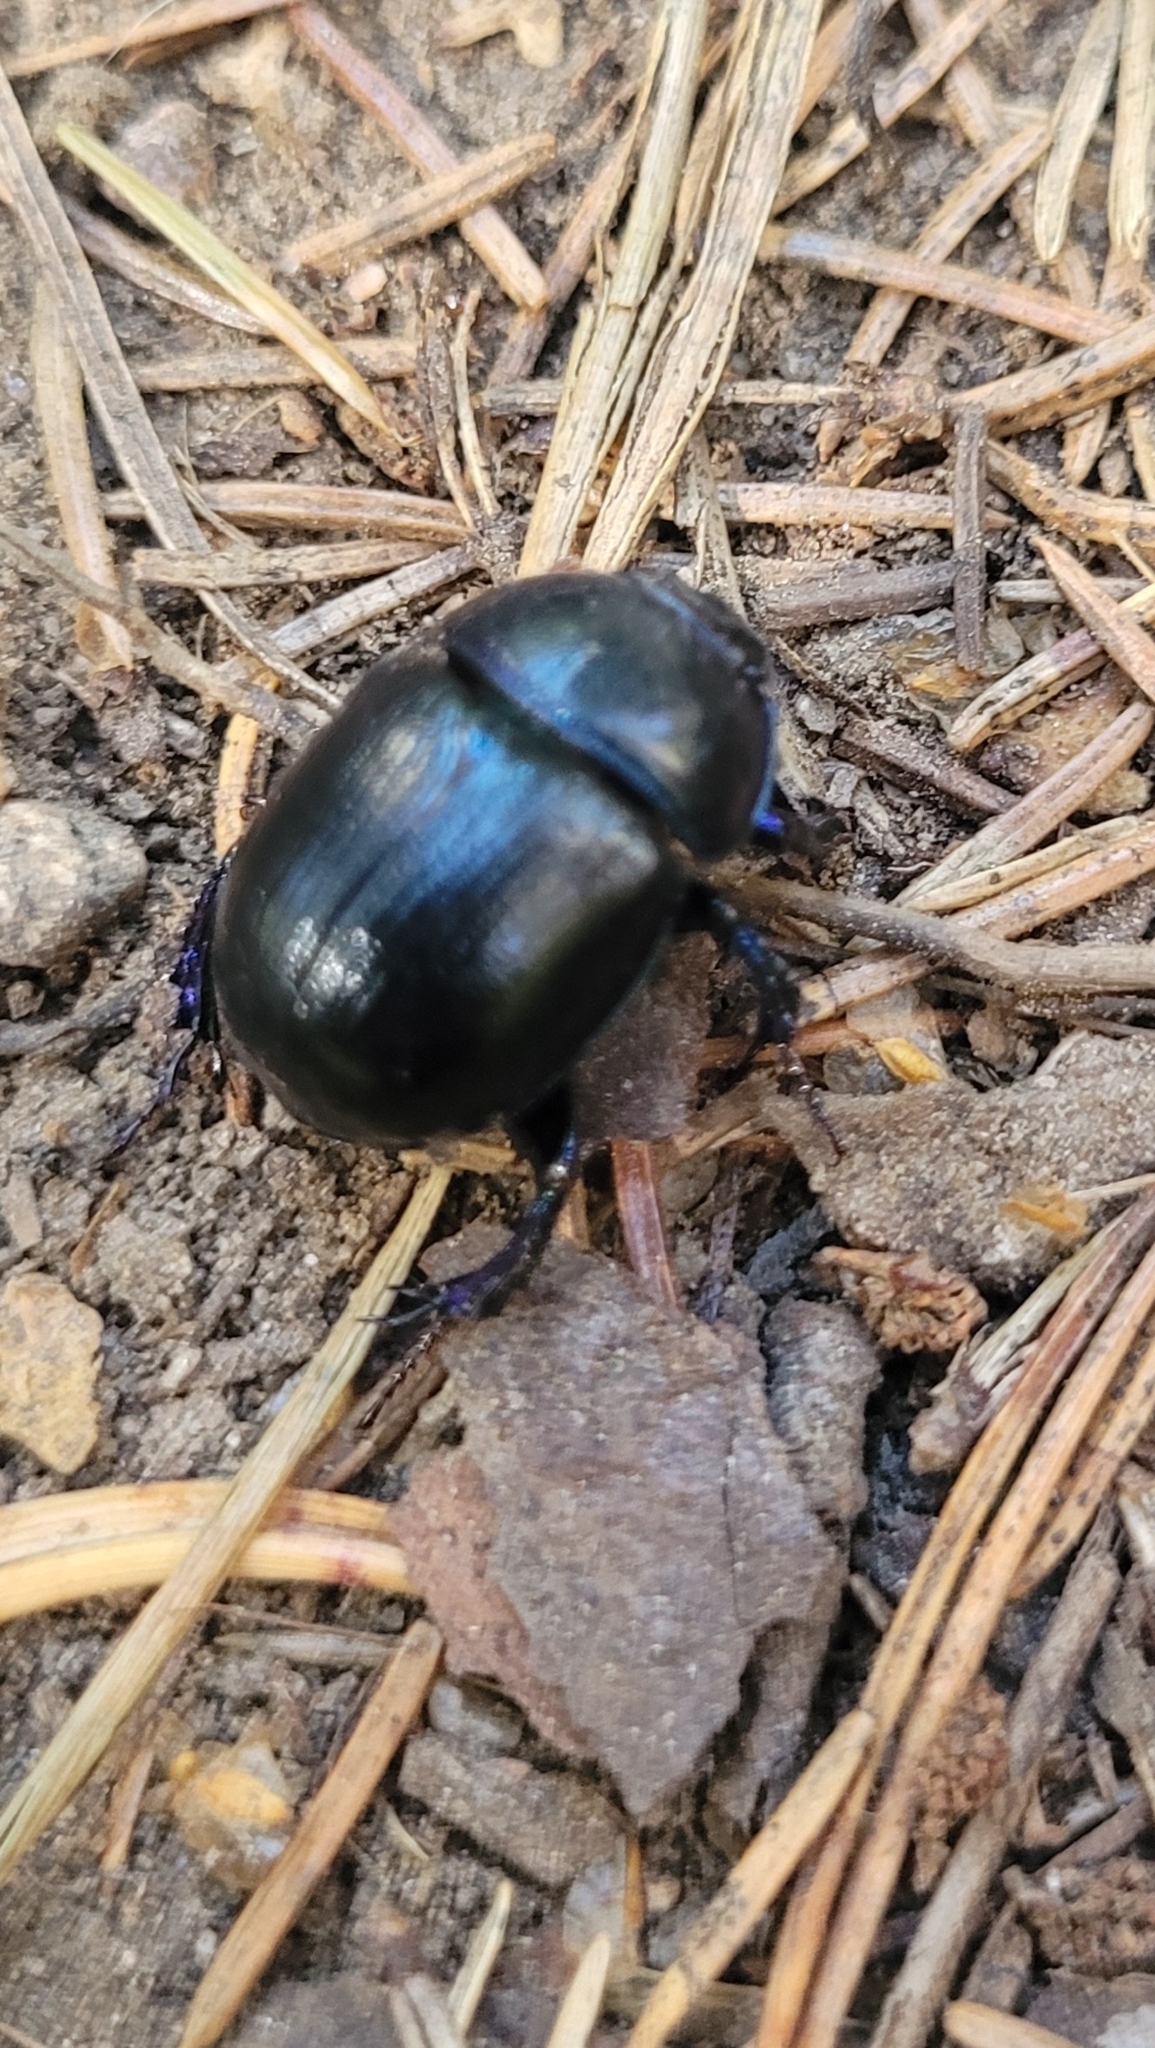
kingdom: Animalia
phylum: Arthropoda
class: Insecta
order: Coleoptera
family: Geotrupidae
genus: Anoplotrupes
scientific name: Anoplotrupes stercorosus
